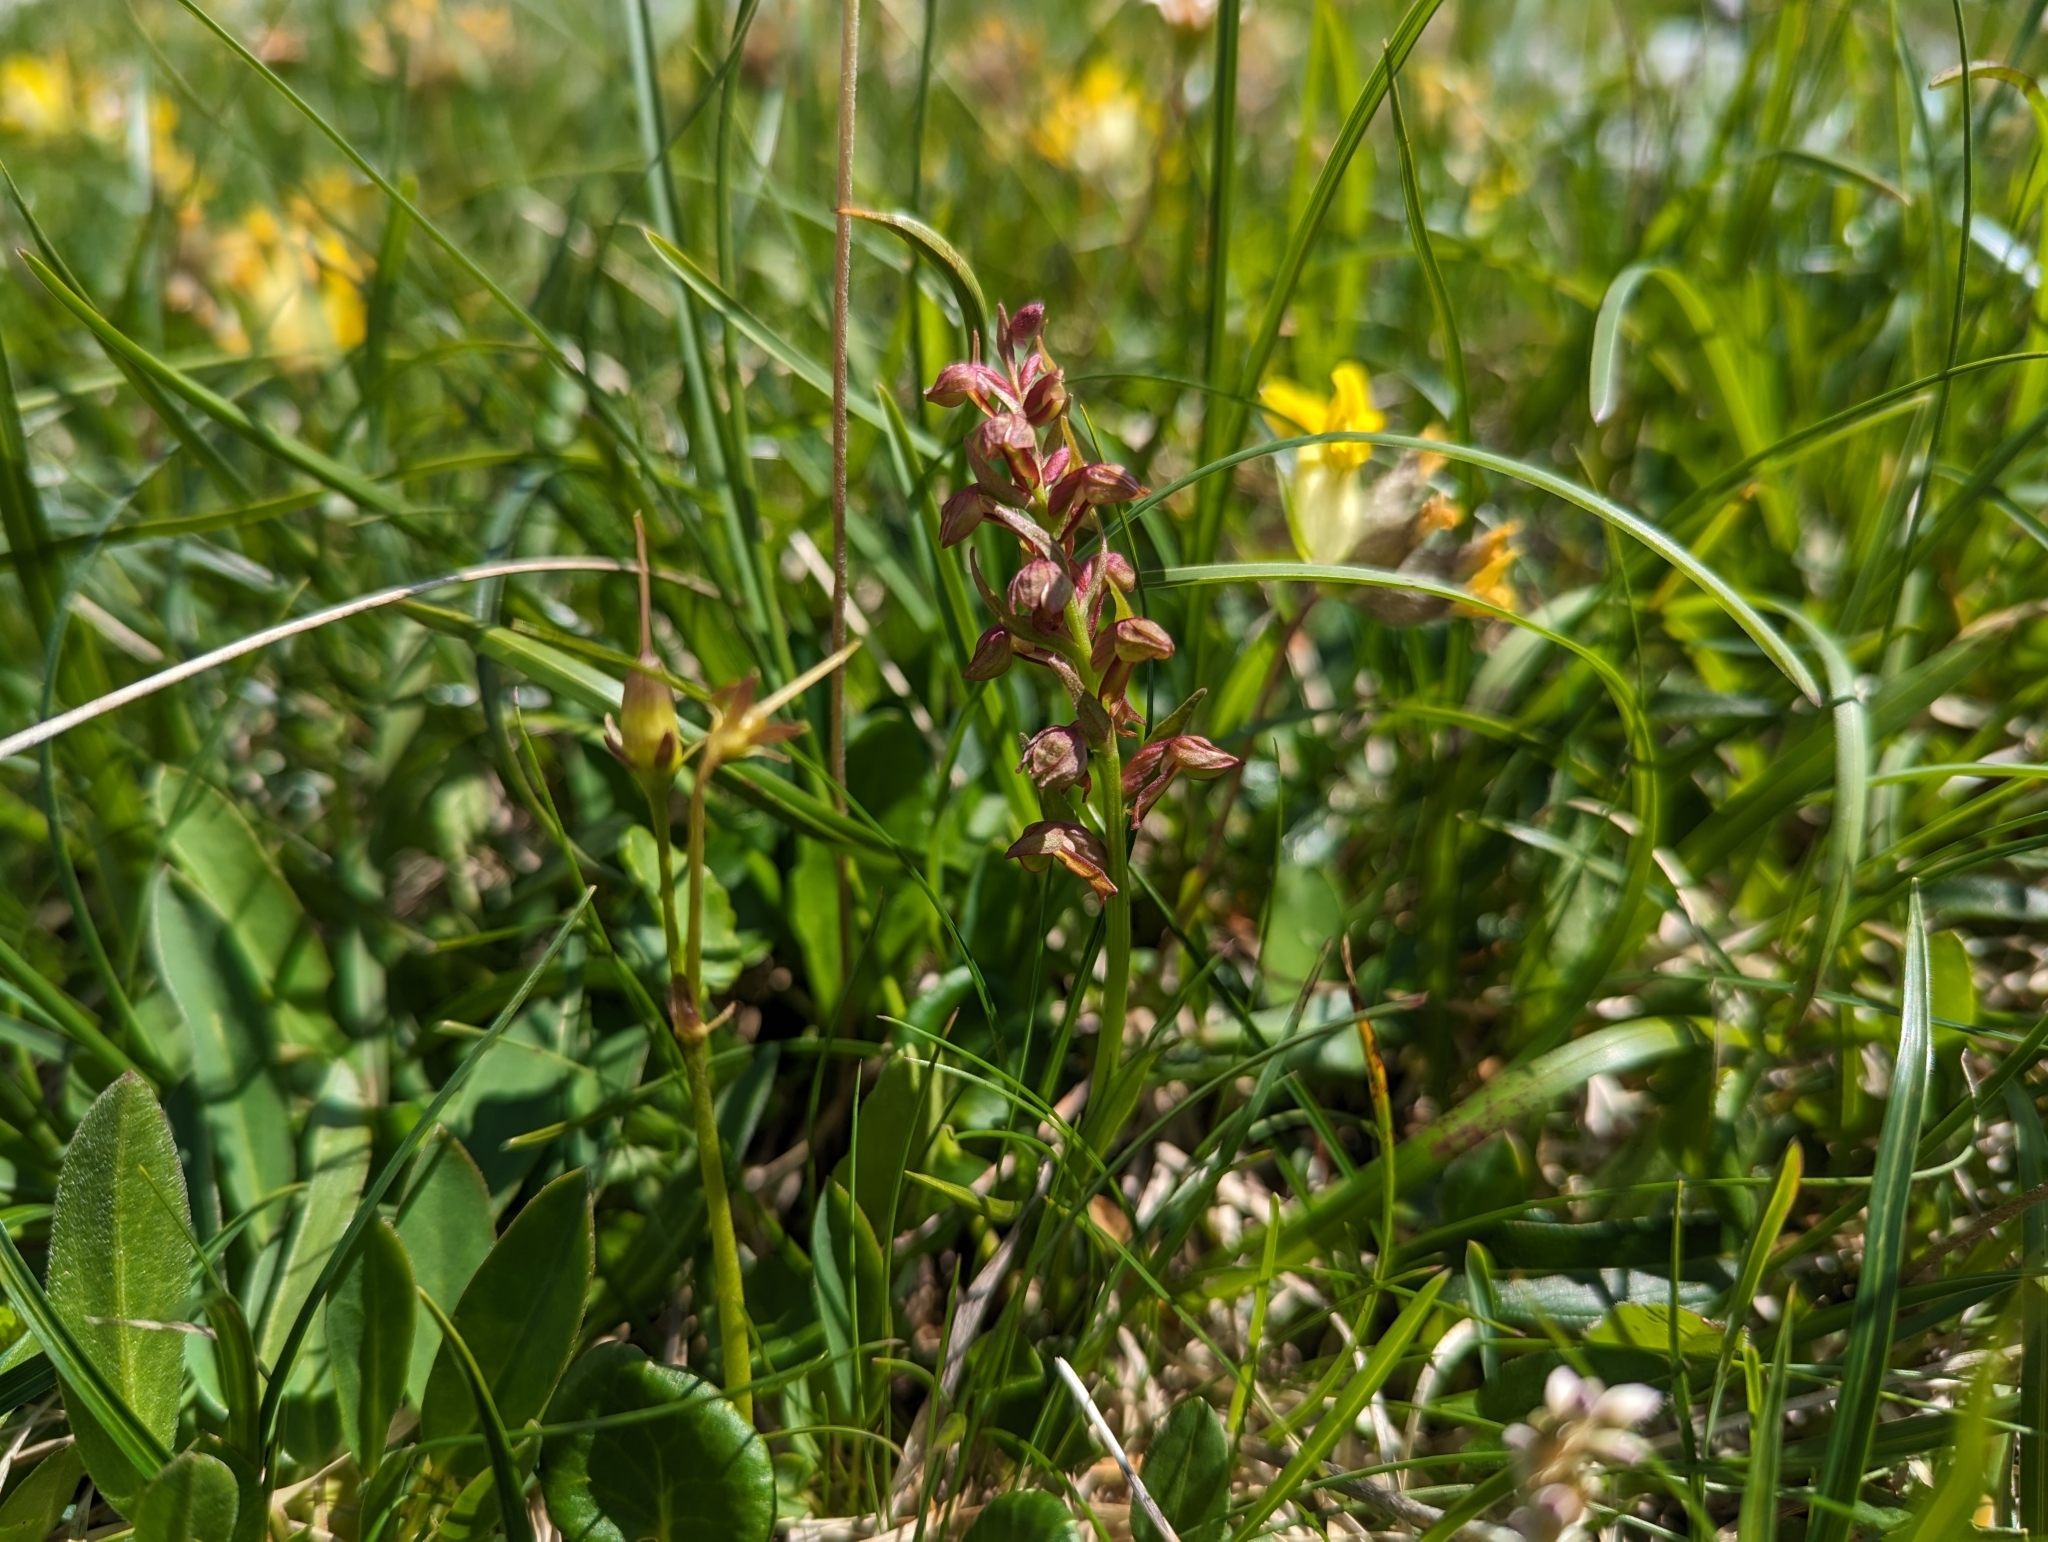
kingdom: Plantae
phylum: Tracheophyta
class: Liliopsida
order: Asparagales
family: Orchidaceae
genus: Dactylorhiza
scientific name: Dactylorhiza viridis
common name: Longbract frog orchid
